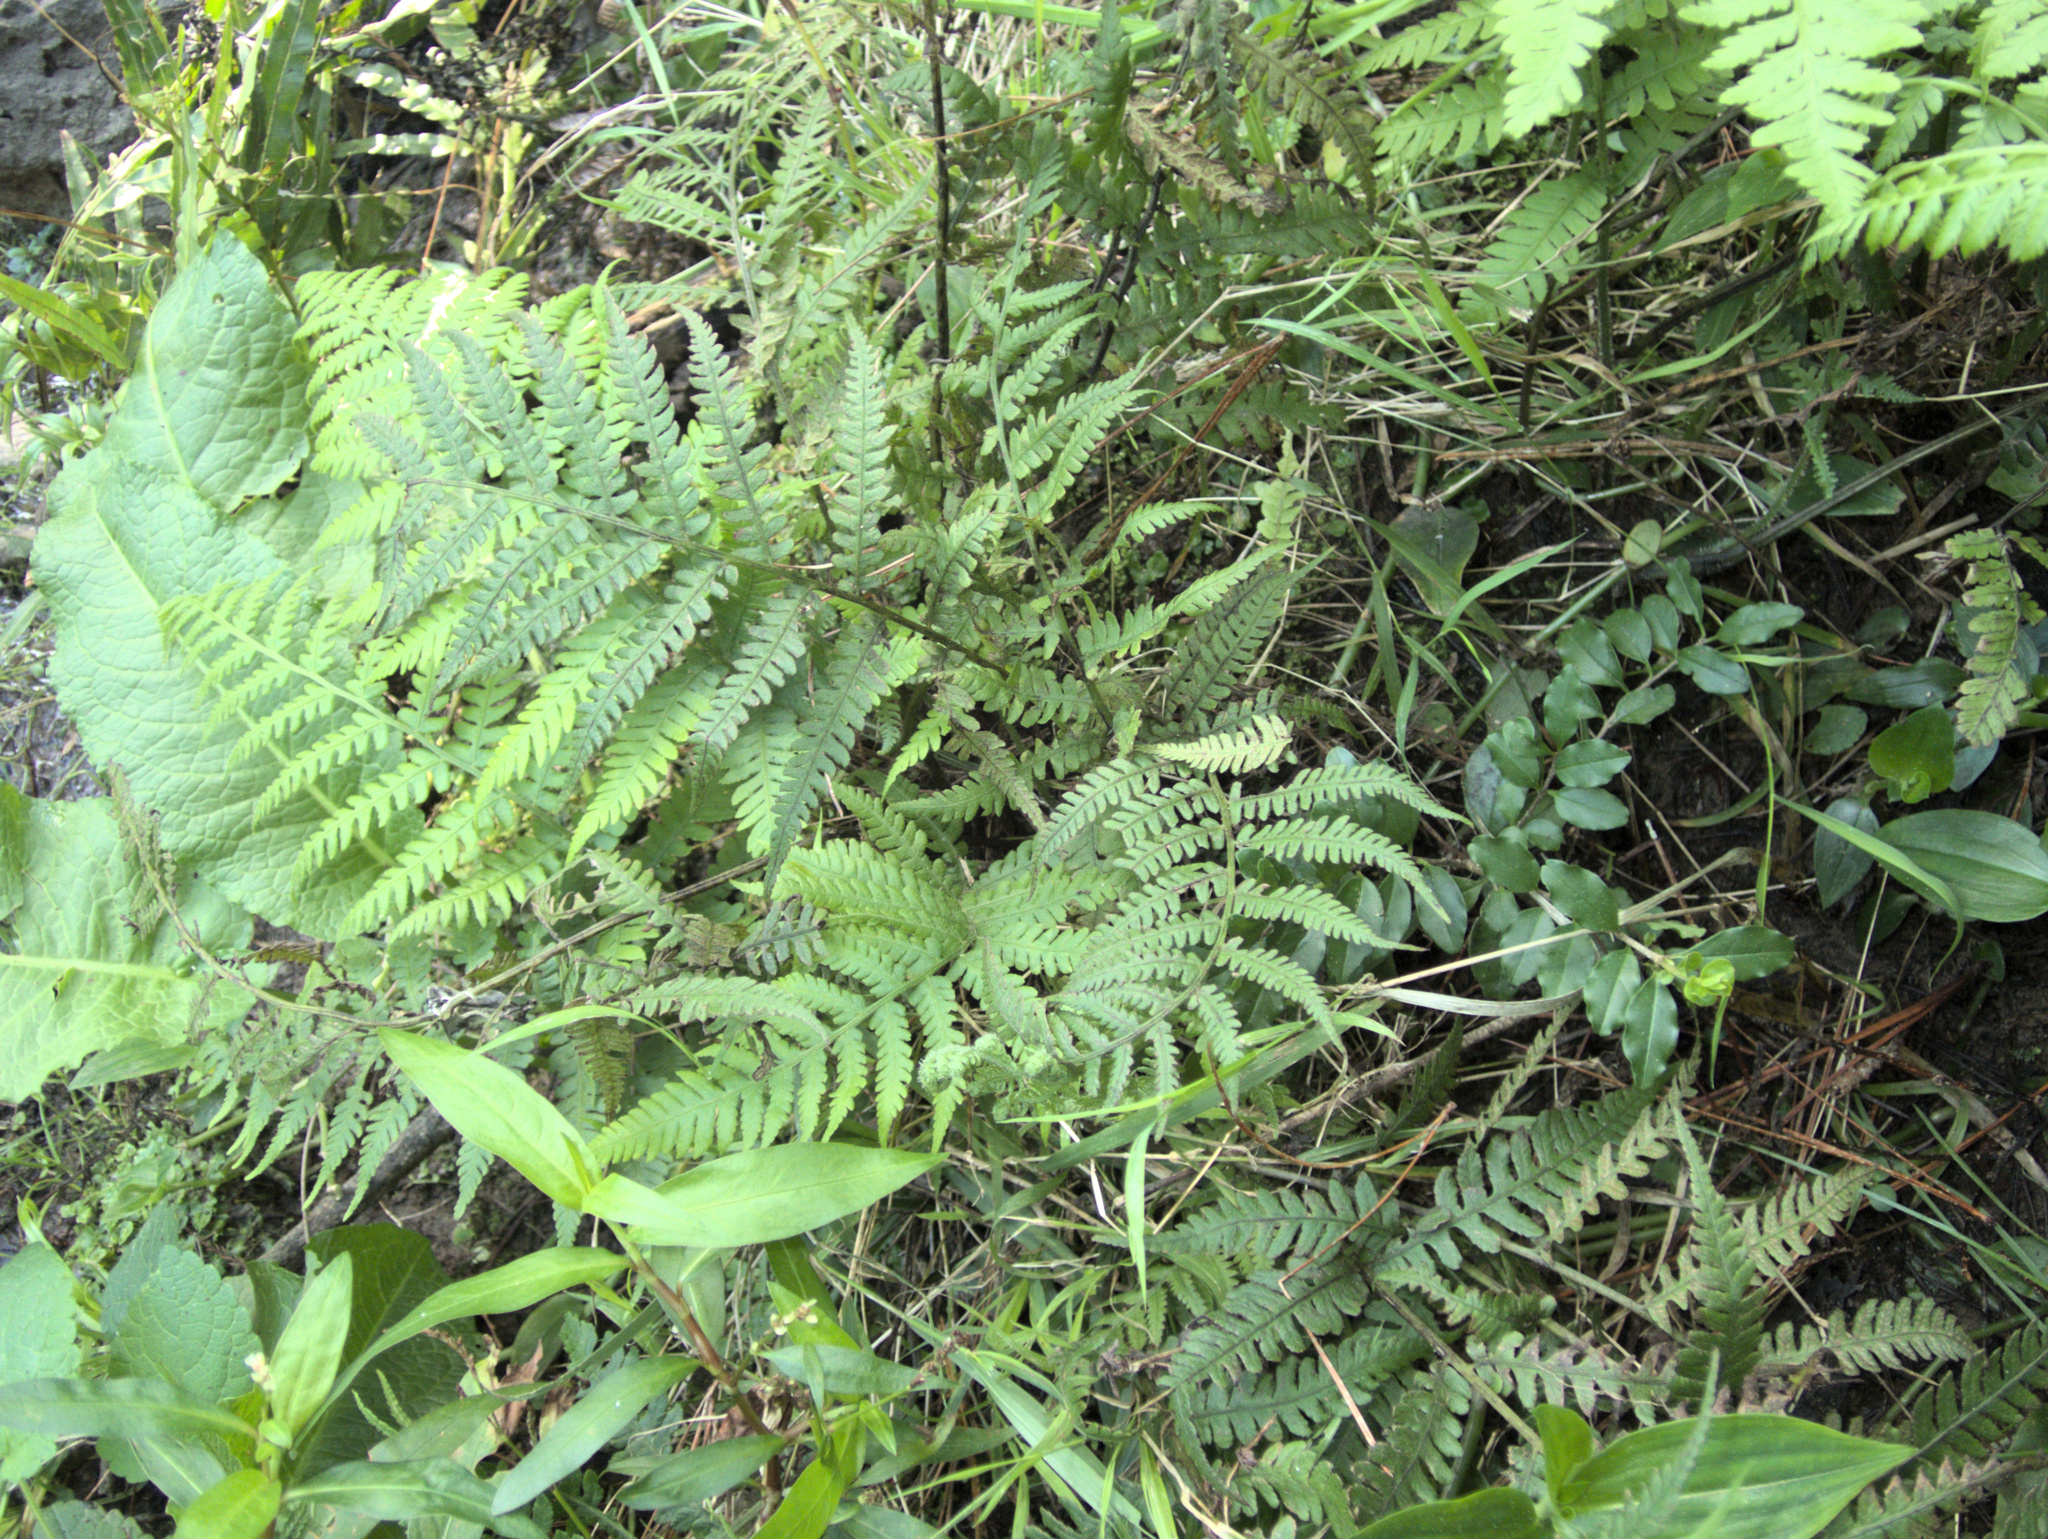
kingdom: Plantae
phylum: Tracheophyta
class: Polypodiopsida
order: Polypodiales
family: Athyriaceae
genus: Deparia
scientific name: Deparia petersenii
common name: Japanese false spleenwort
